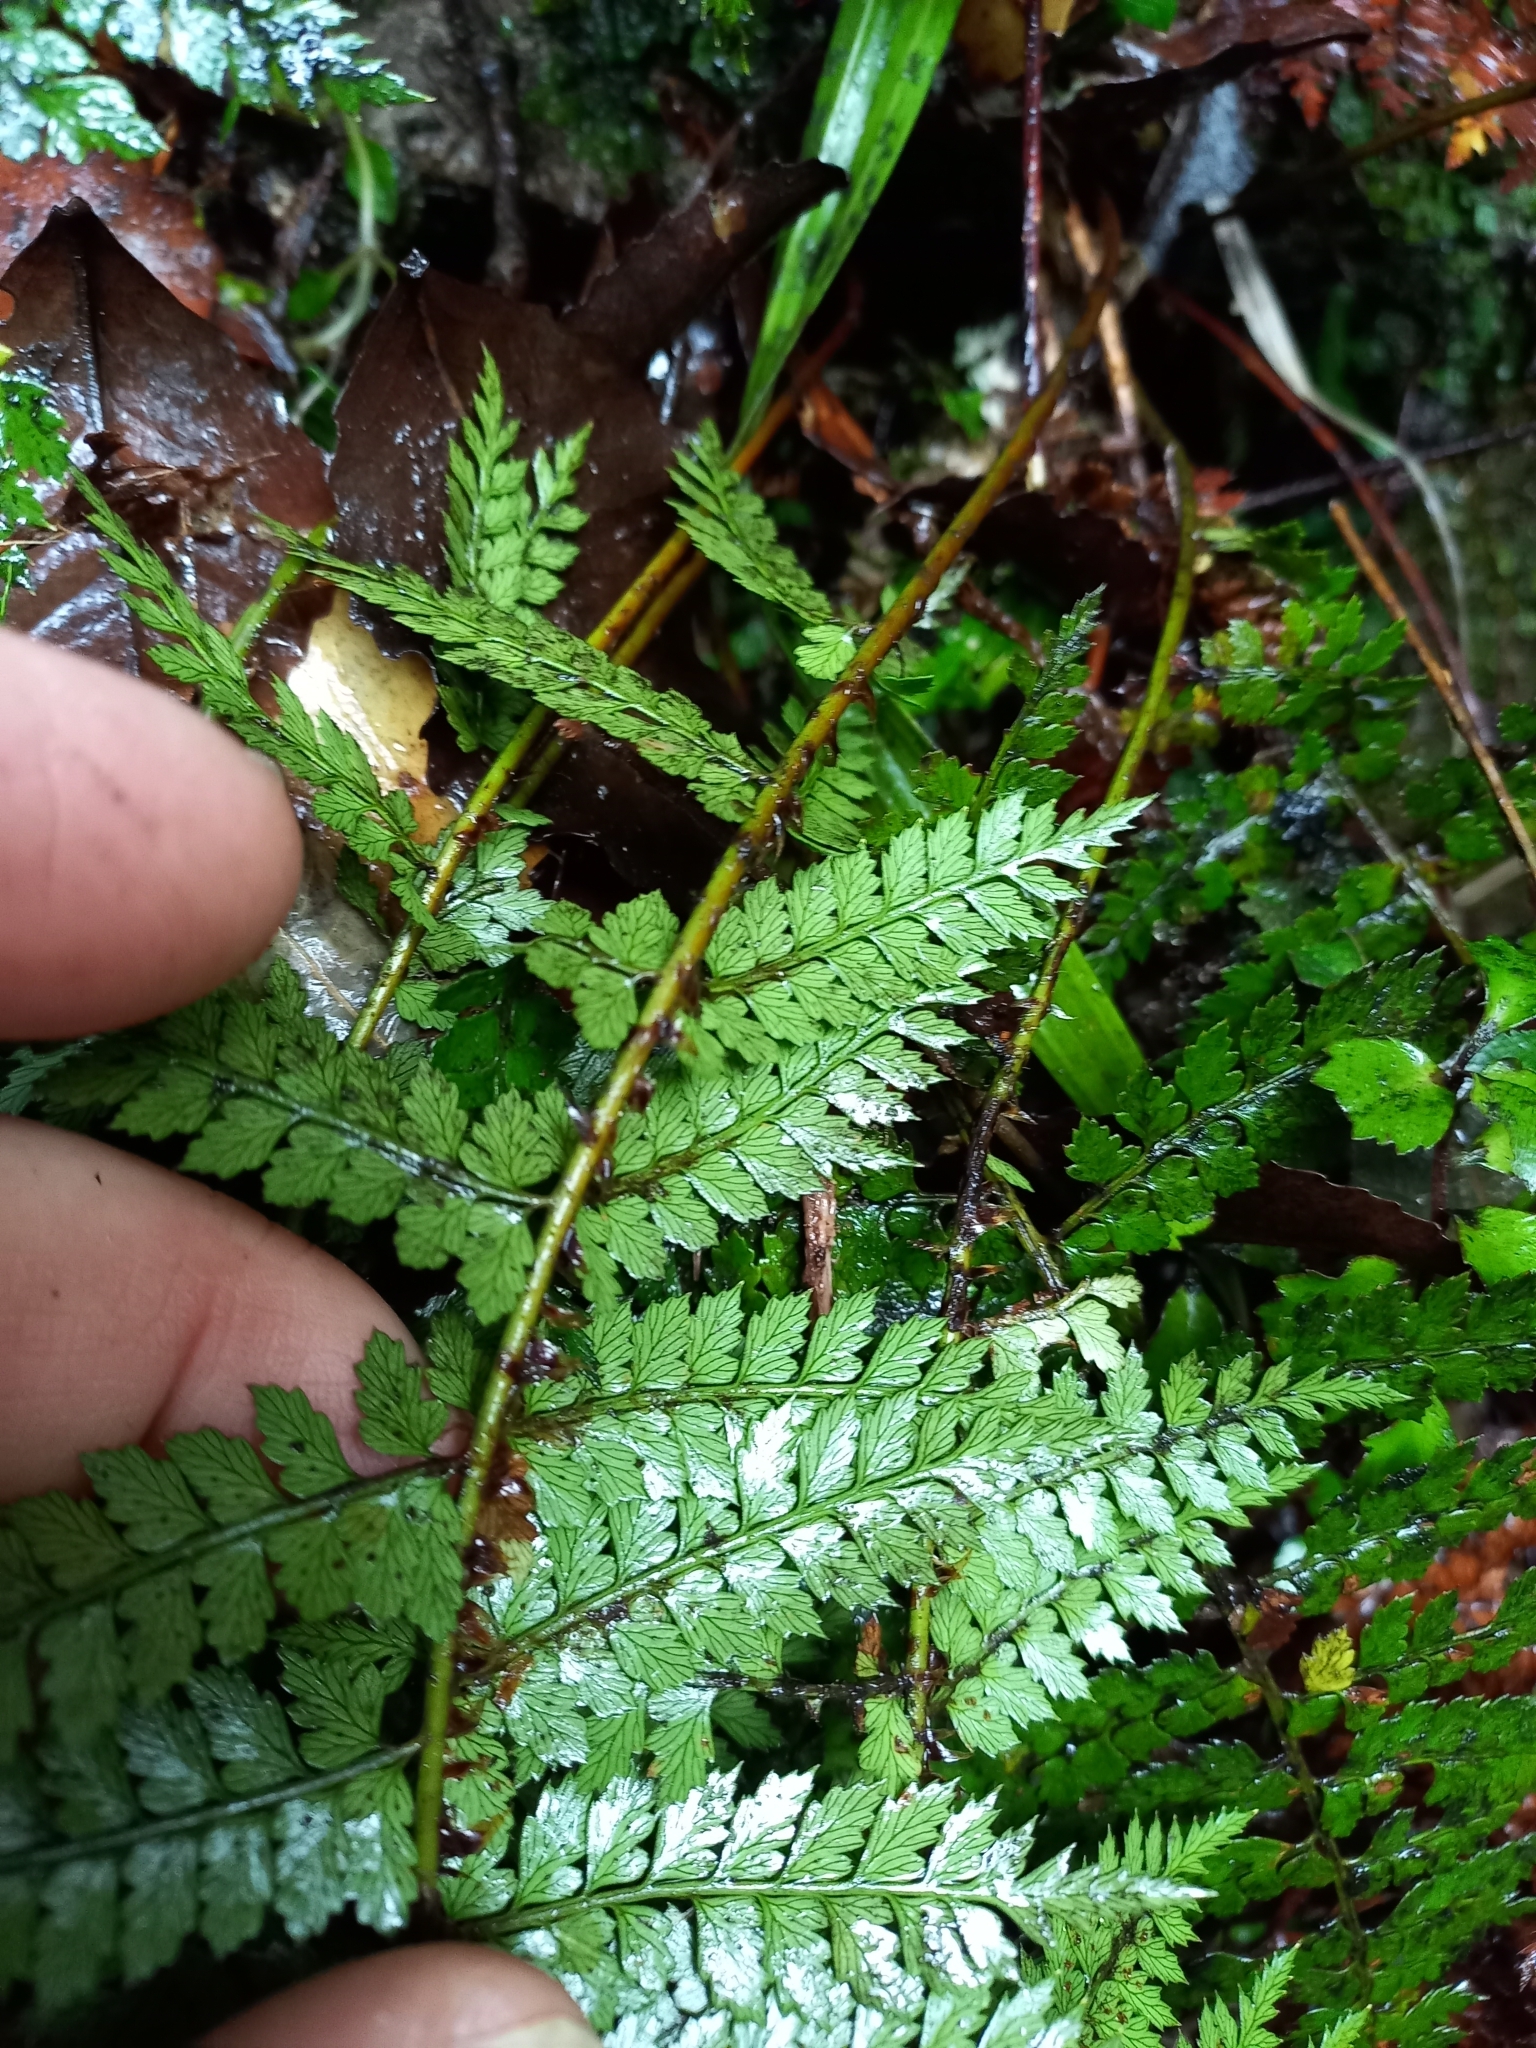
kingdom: Plantae
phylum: Tracheophyta
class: Polypodiopsida
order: Polypodiales
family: Dryopteridaceae
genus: Polystichum
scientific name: Polystichum neozelandicum
